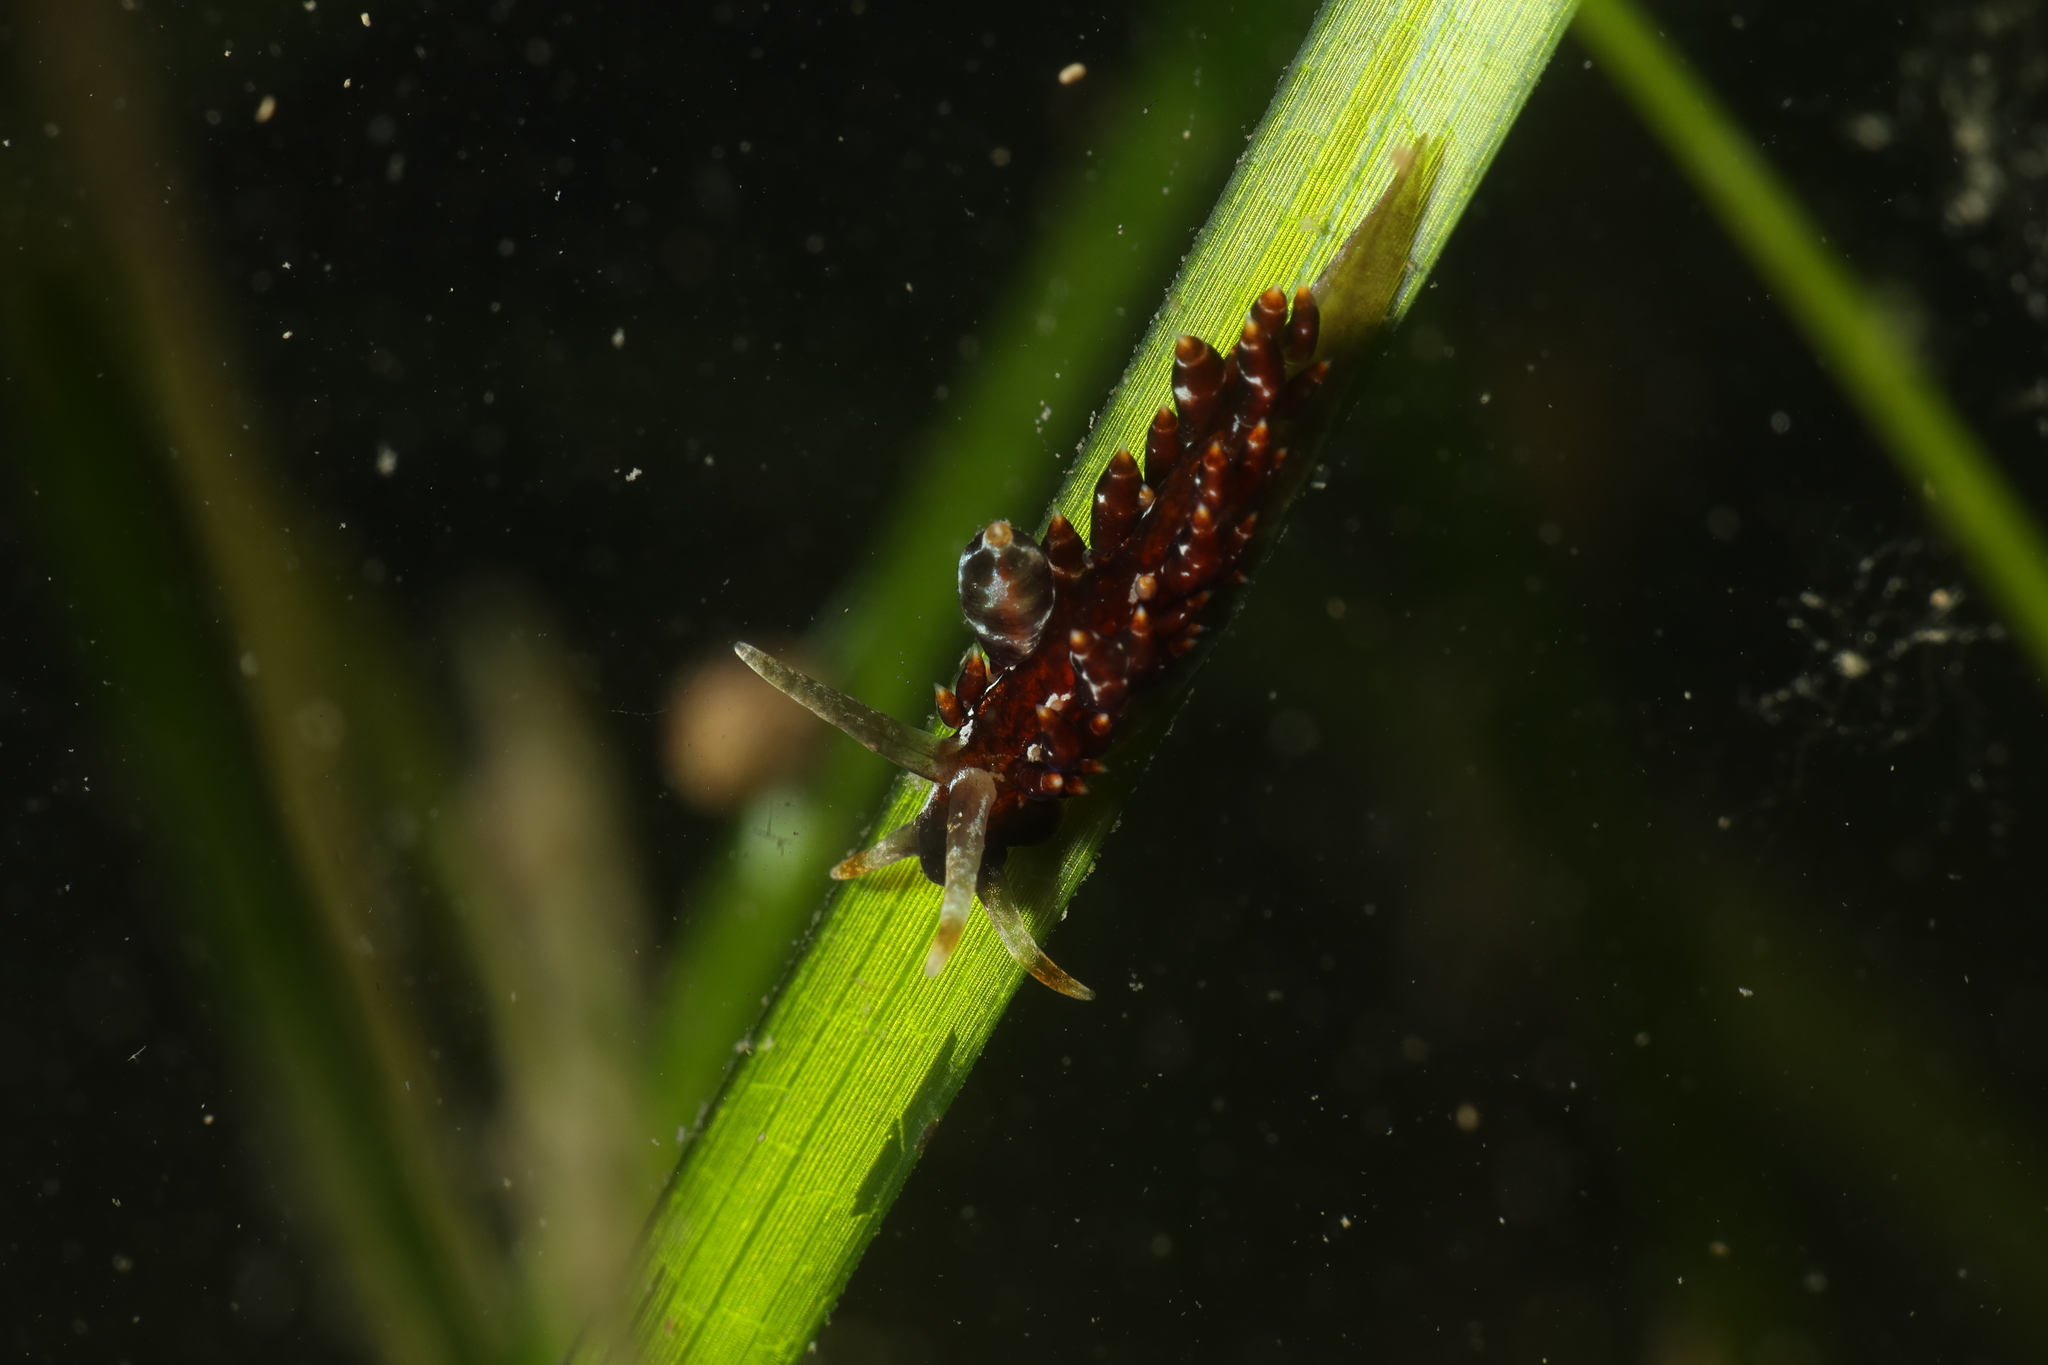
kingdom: Animalia
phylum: Mollusca
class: Gastropoda
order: Nudibranchia
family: Eubranchidae
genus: Amphorina
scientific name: Amphorina andra
